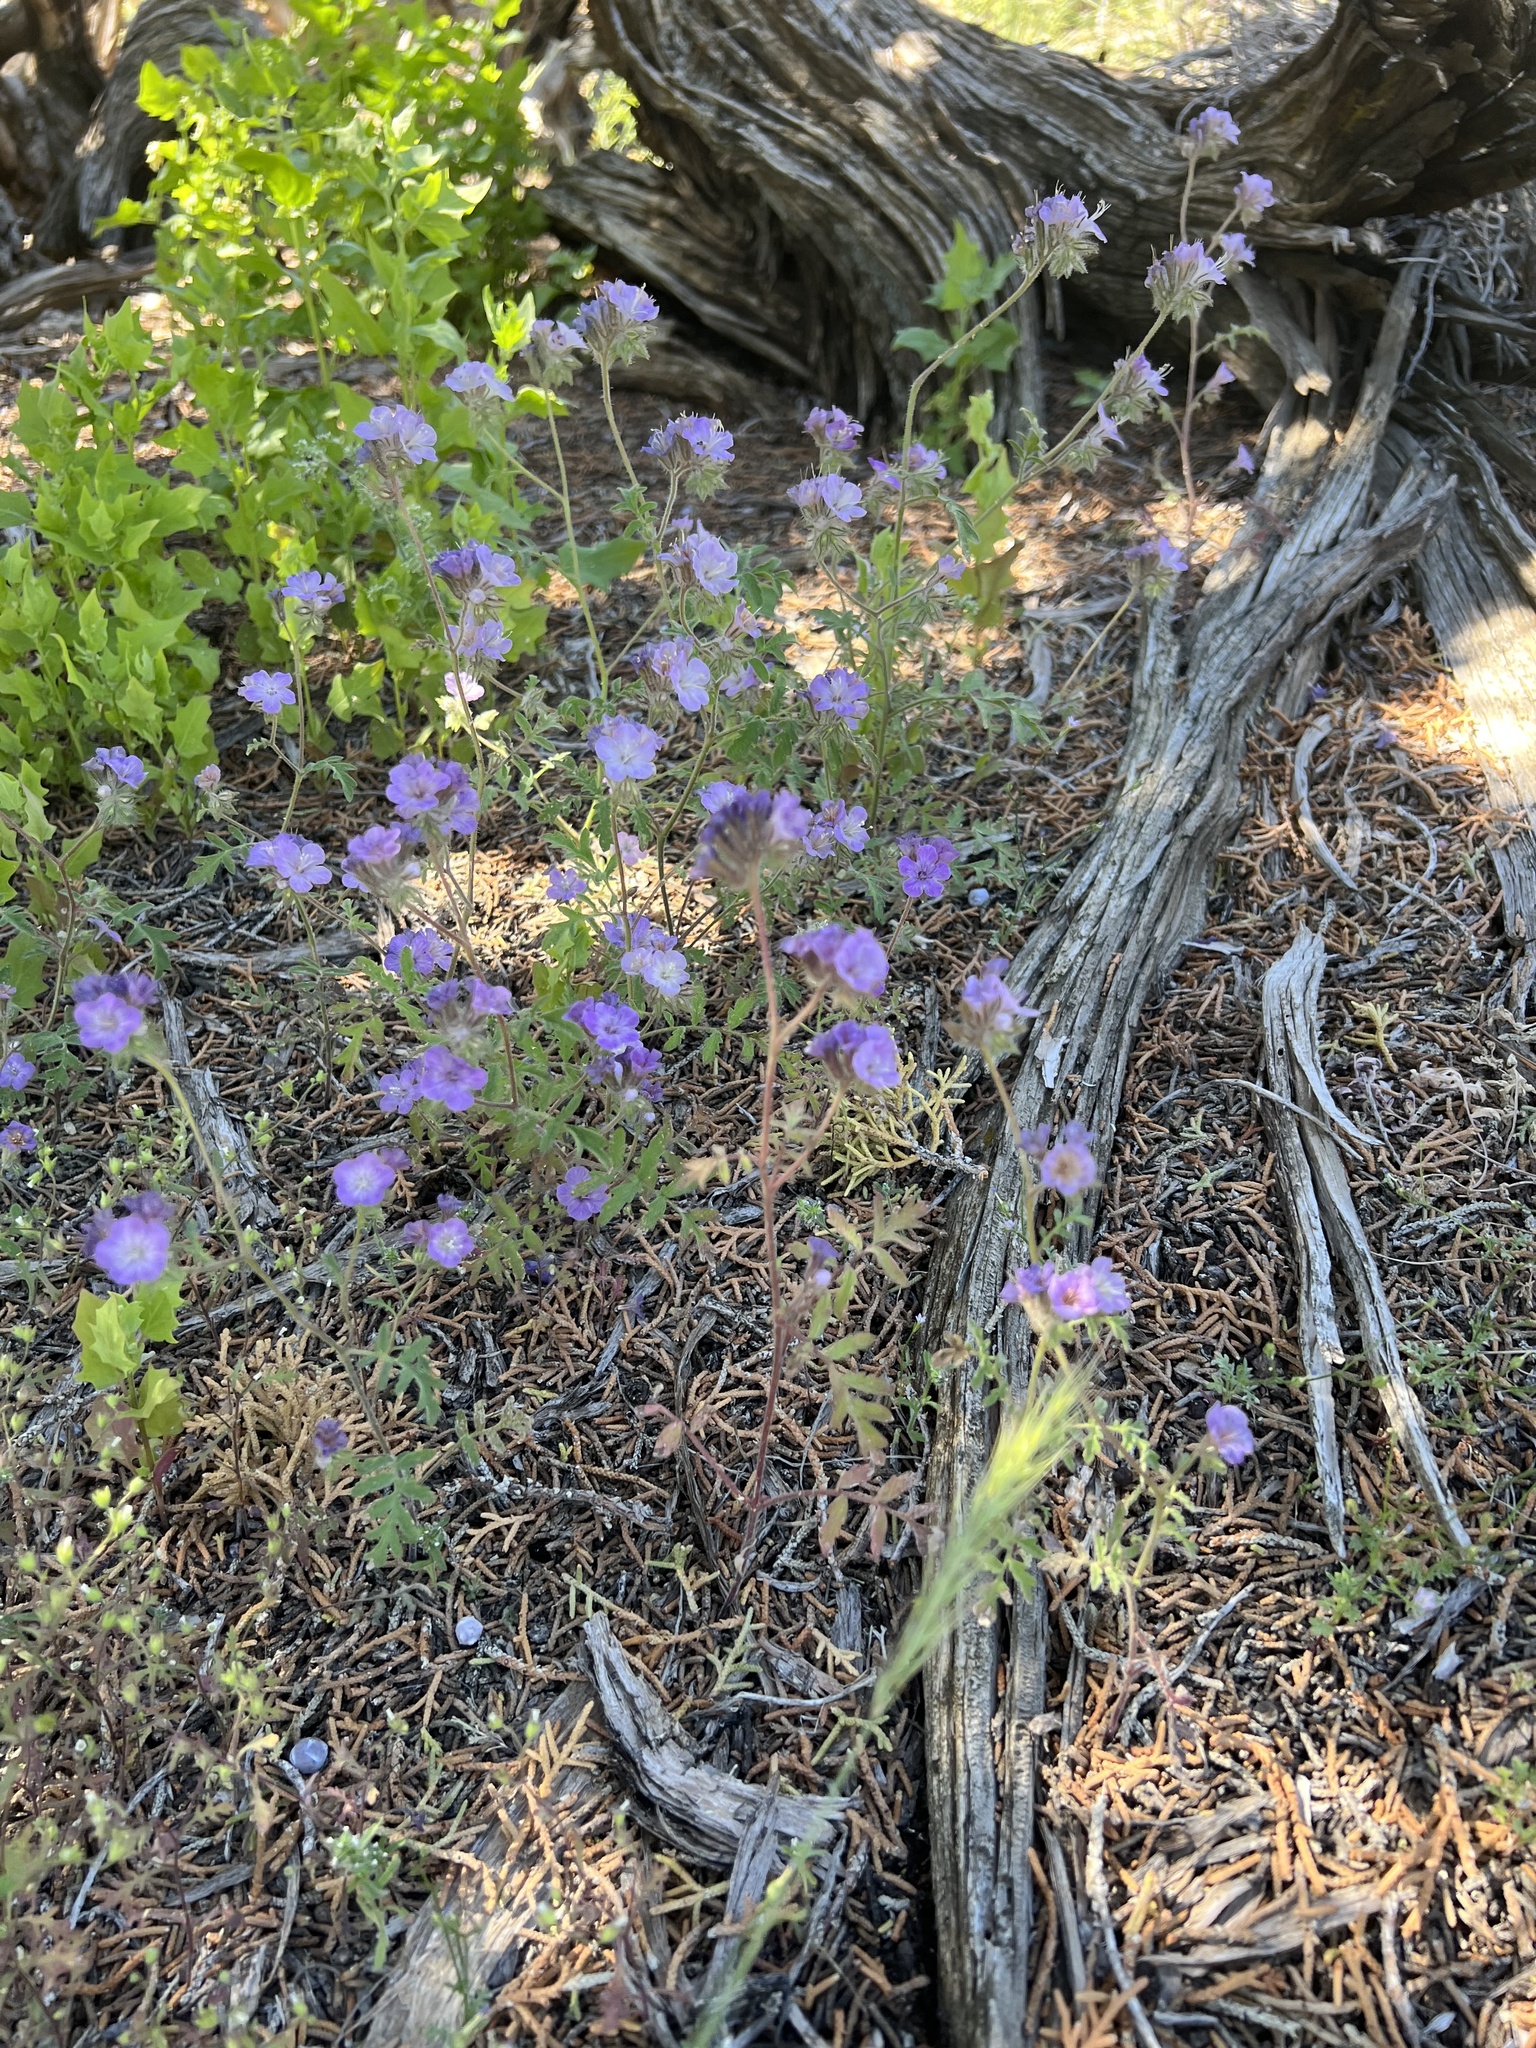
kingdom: Plantae
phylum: Tracheophyta
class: Magnoliopsida
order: Boraginales
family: Hydrophyllaceae
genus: Phacelia
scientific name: Phacelia vallis-mortae
